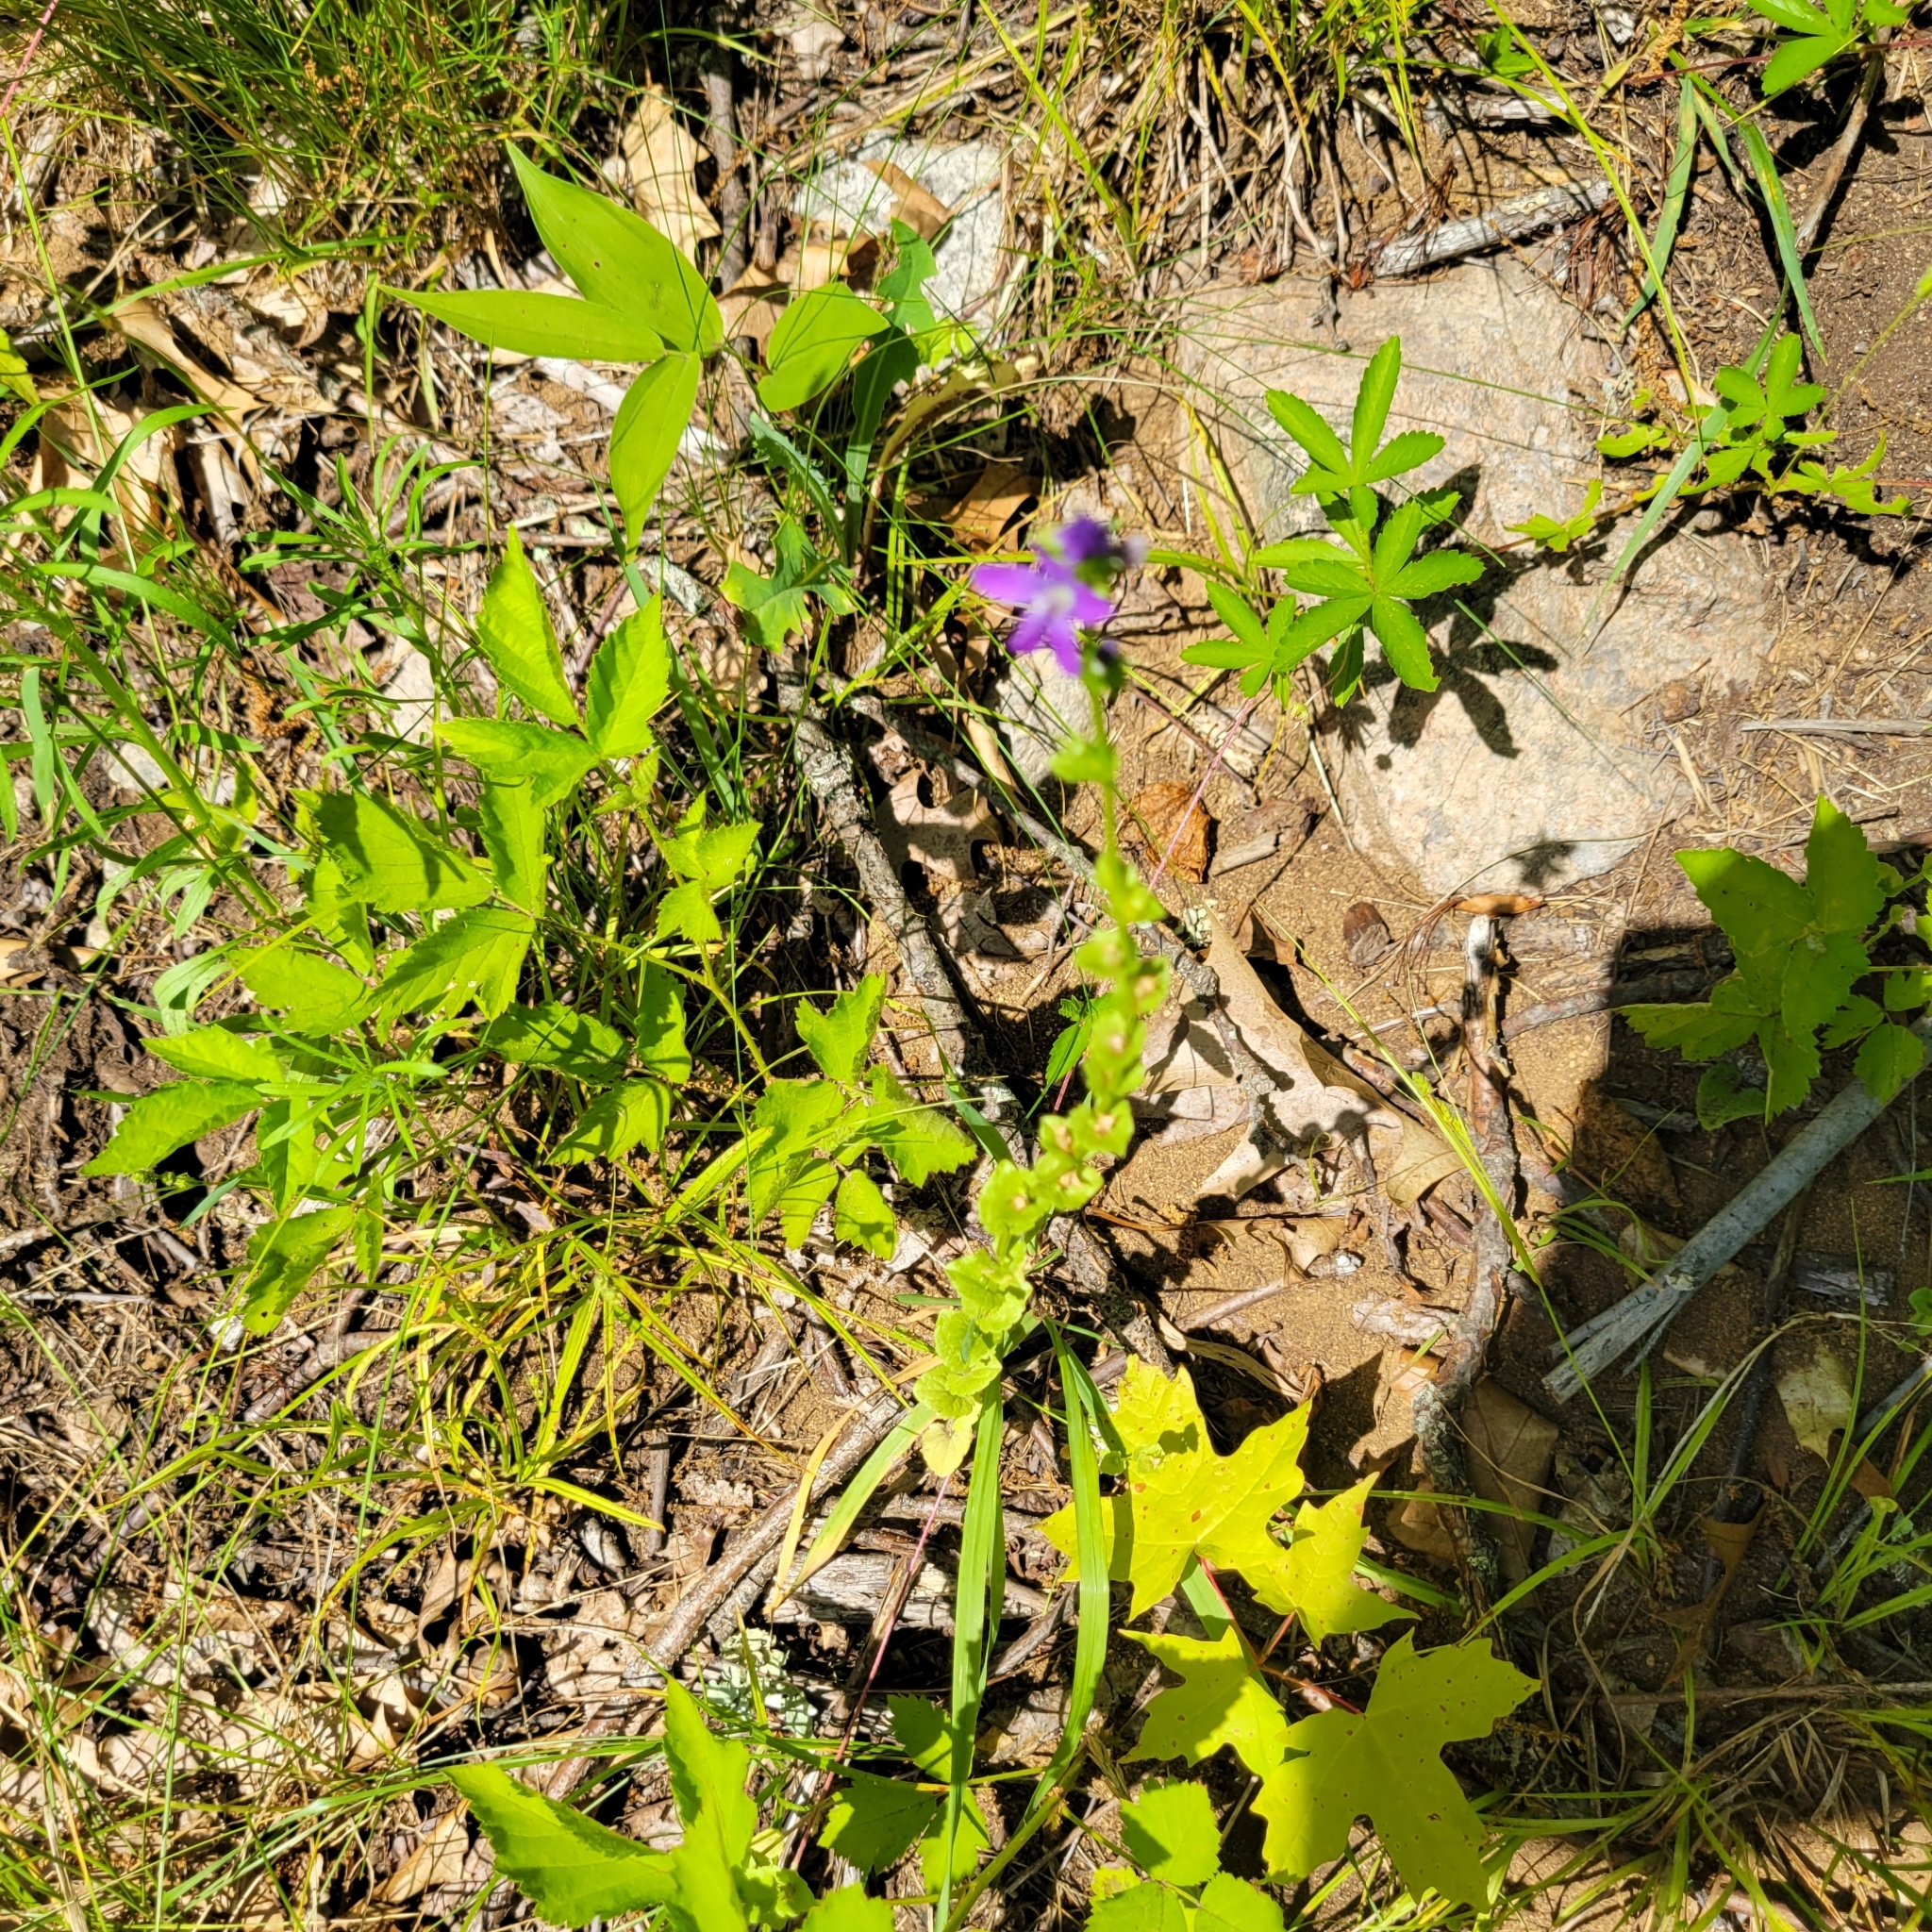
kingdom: Plantae
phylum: Tracheophyta
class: Magnoliopsida
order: Asterales
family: Campanulaceae
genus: Triodanis
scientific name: Triodanis perfoliata
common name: Clasping venus' looking-glass
